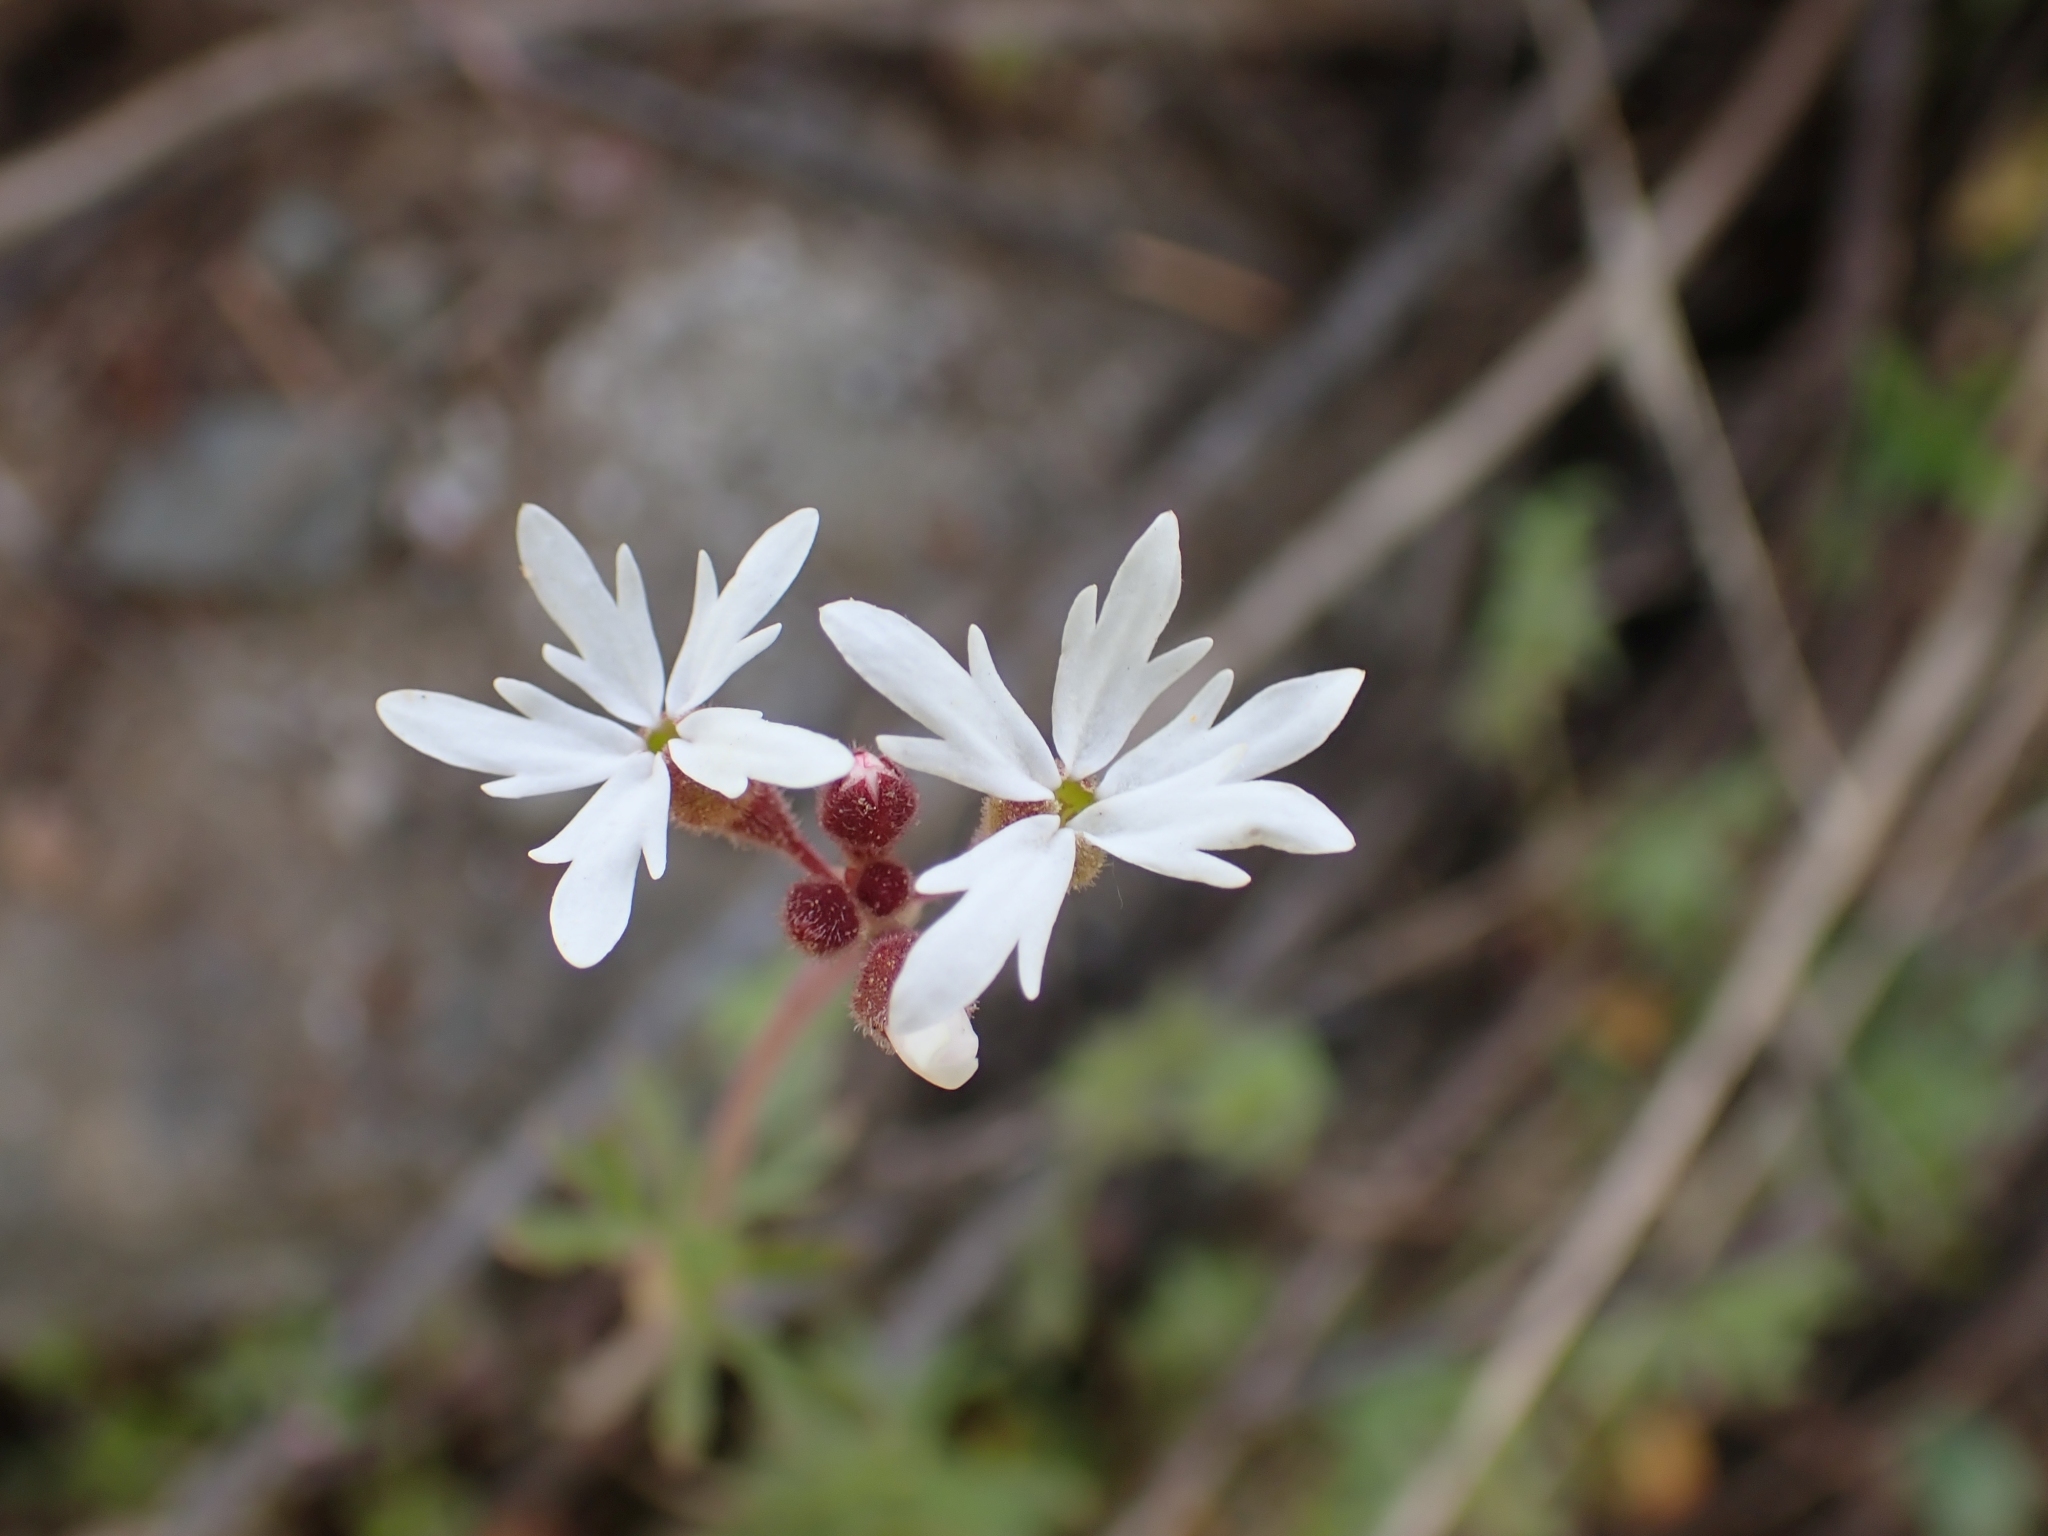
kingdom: Plantae
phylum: Tracheophyta
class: Magnoliopsida
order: Saxifragales
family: Saxifragaceae
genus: Lithophragma
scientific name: Lithophragma parviflorum
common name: Small-flowered fringe-cup
